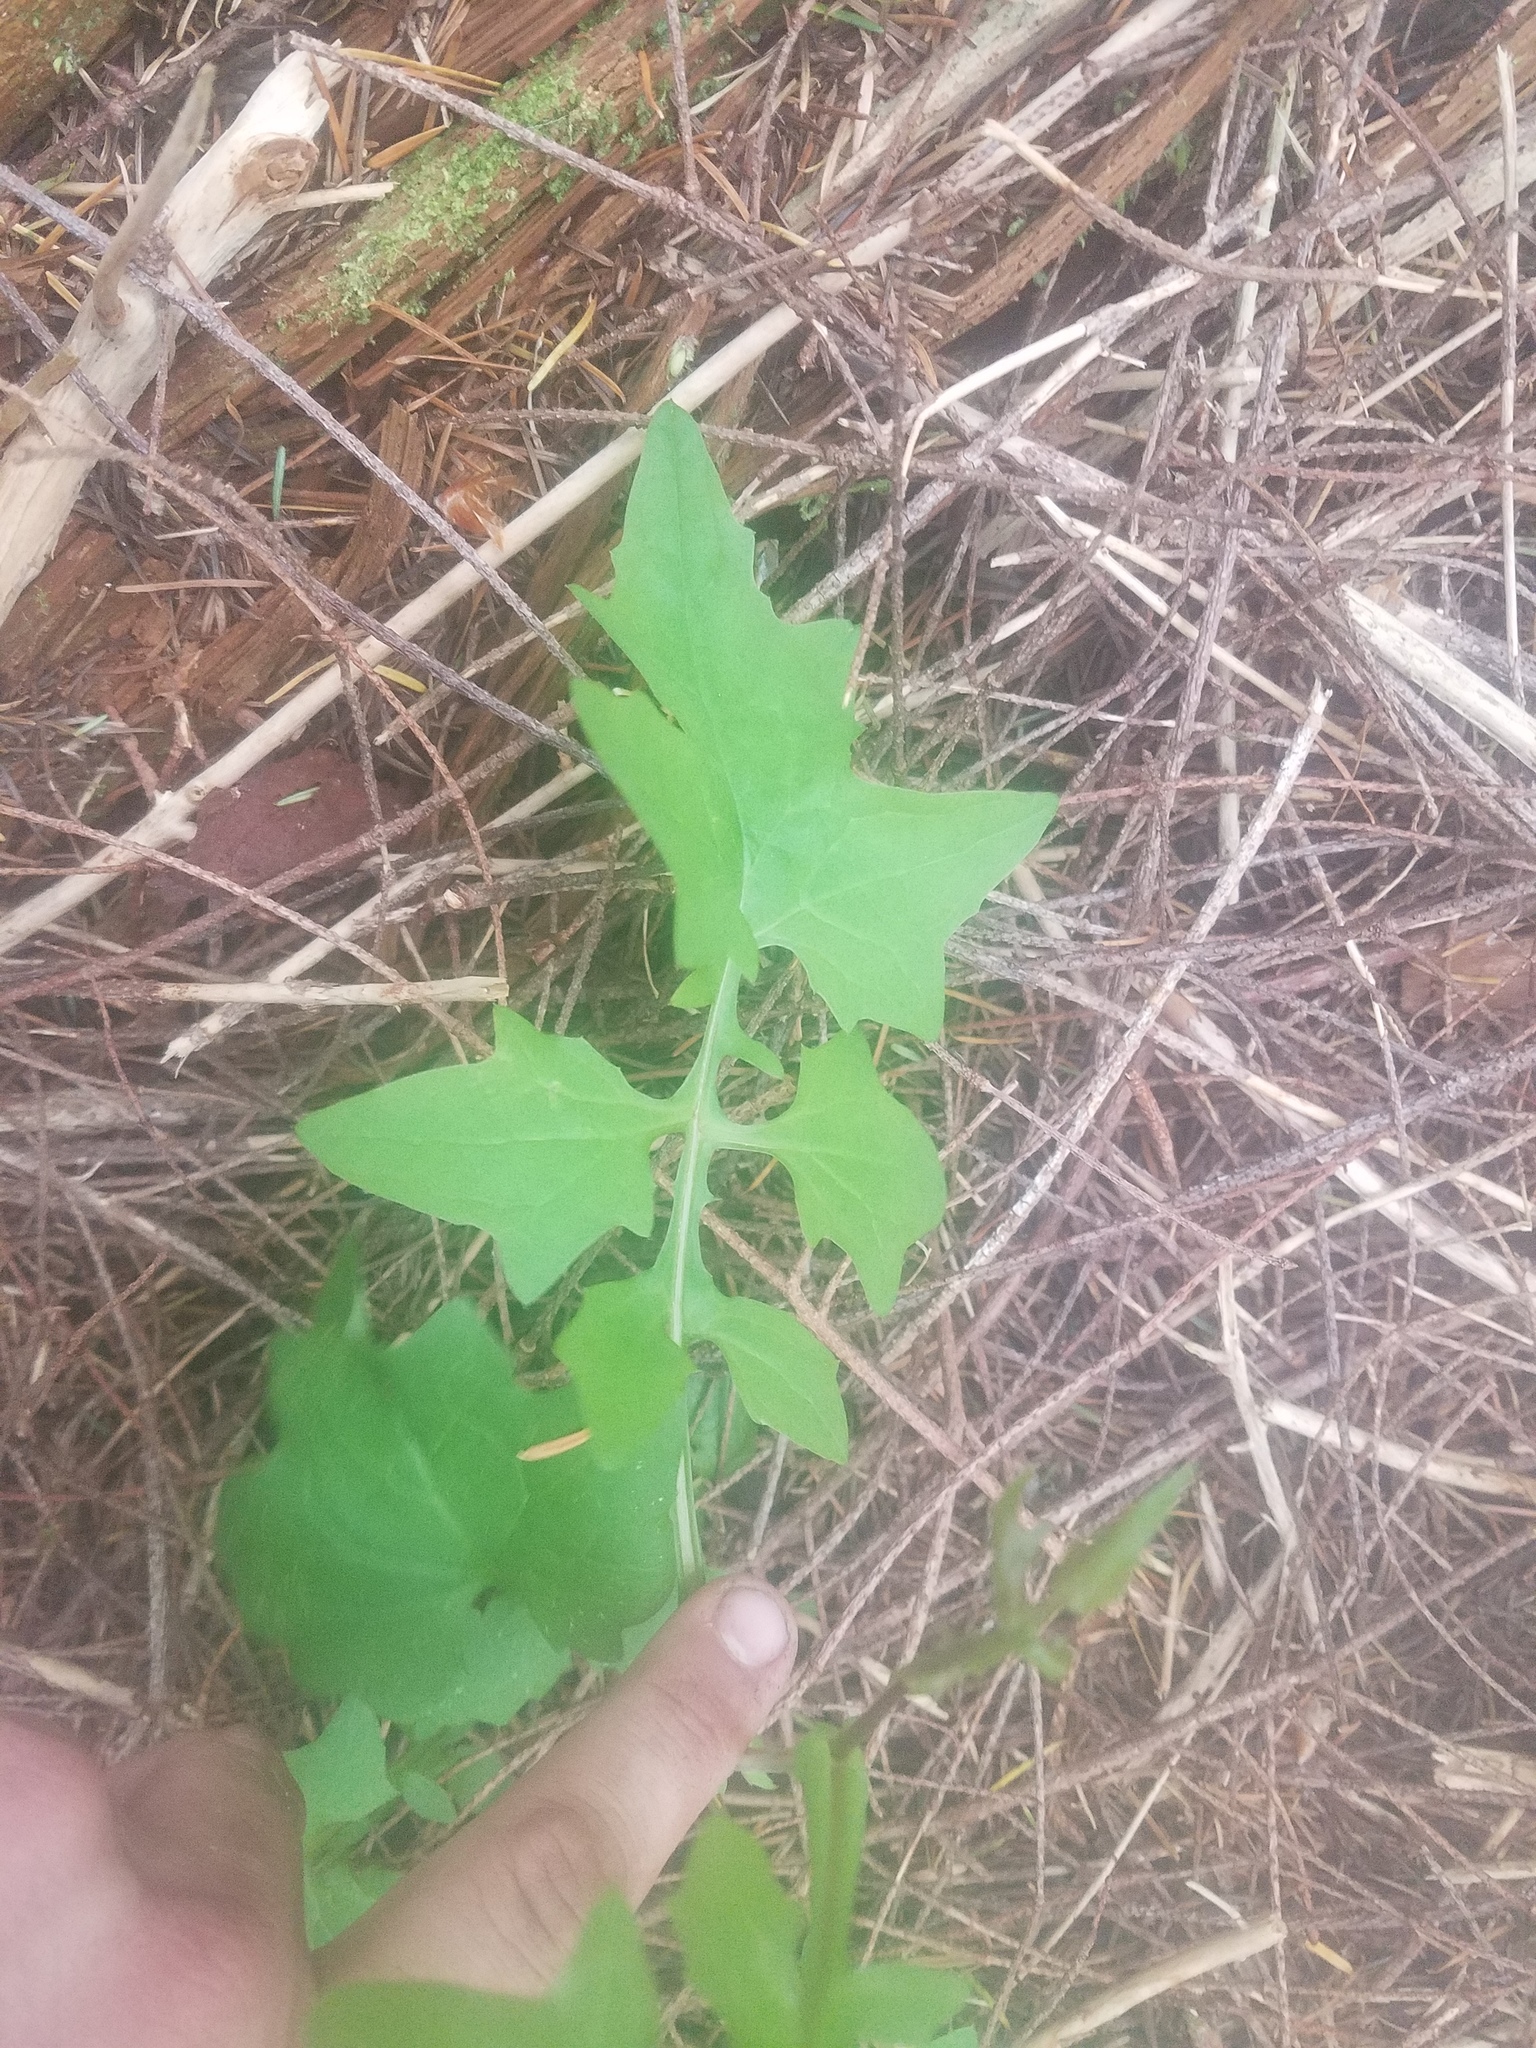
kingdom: Plantae
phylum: Tracheophyta
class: Magnoliopsida
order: Asterales
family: Asteraceae
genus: Mycelis
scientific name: Mycelis muralis
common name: Wall lettuce
